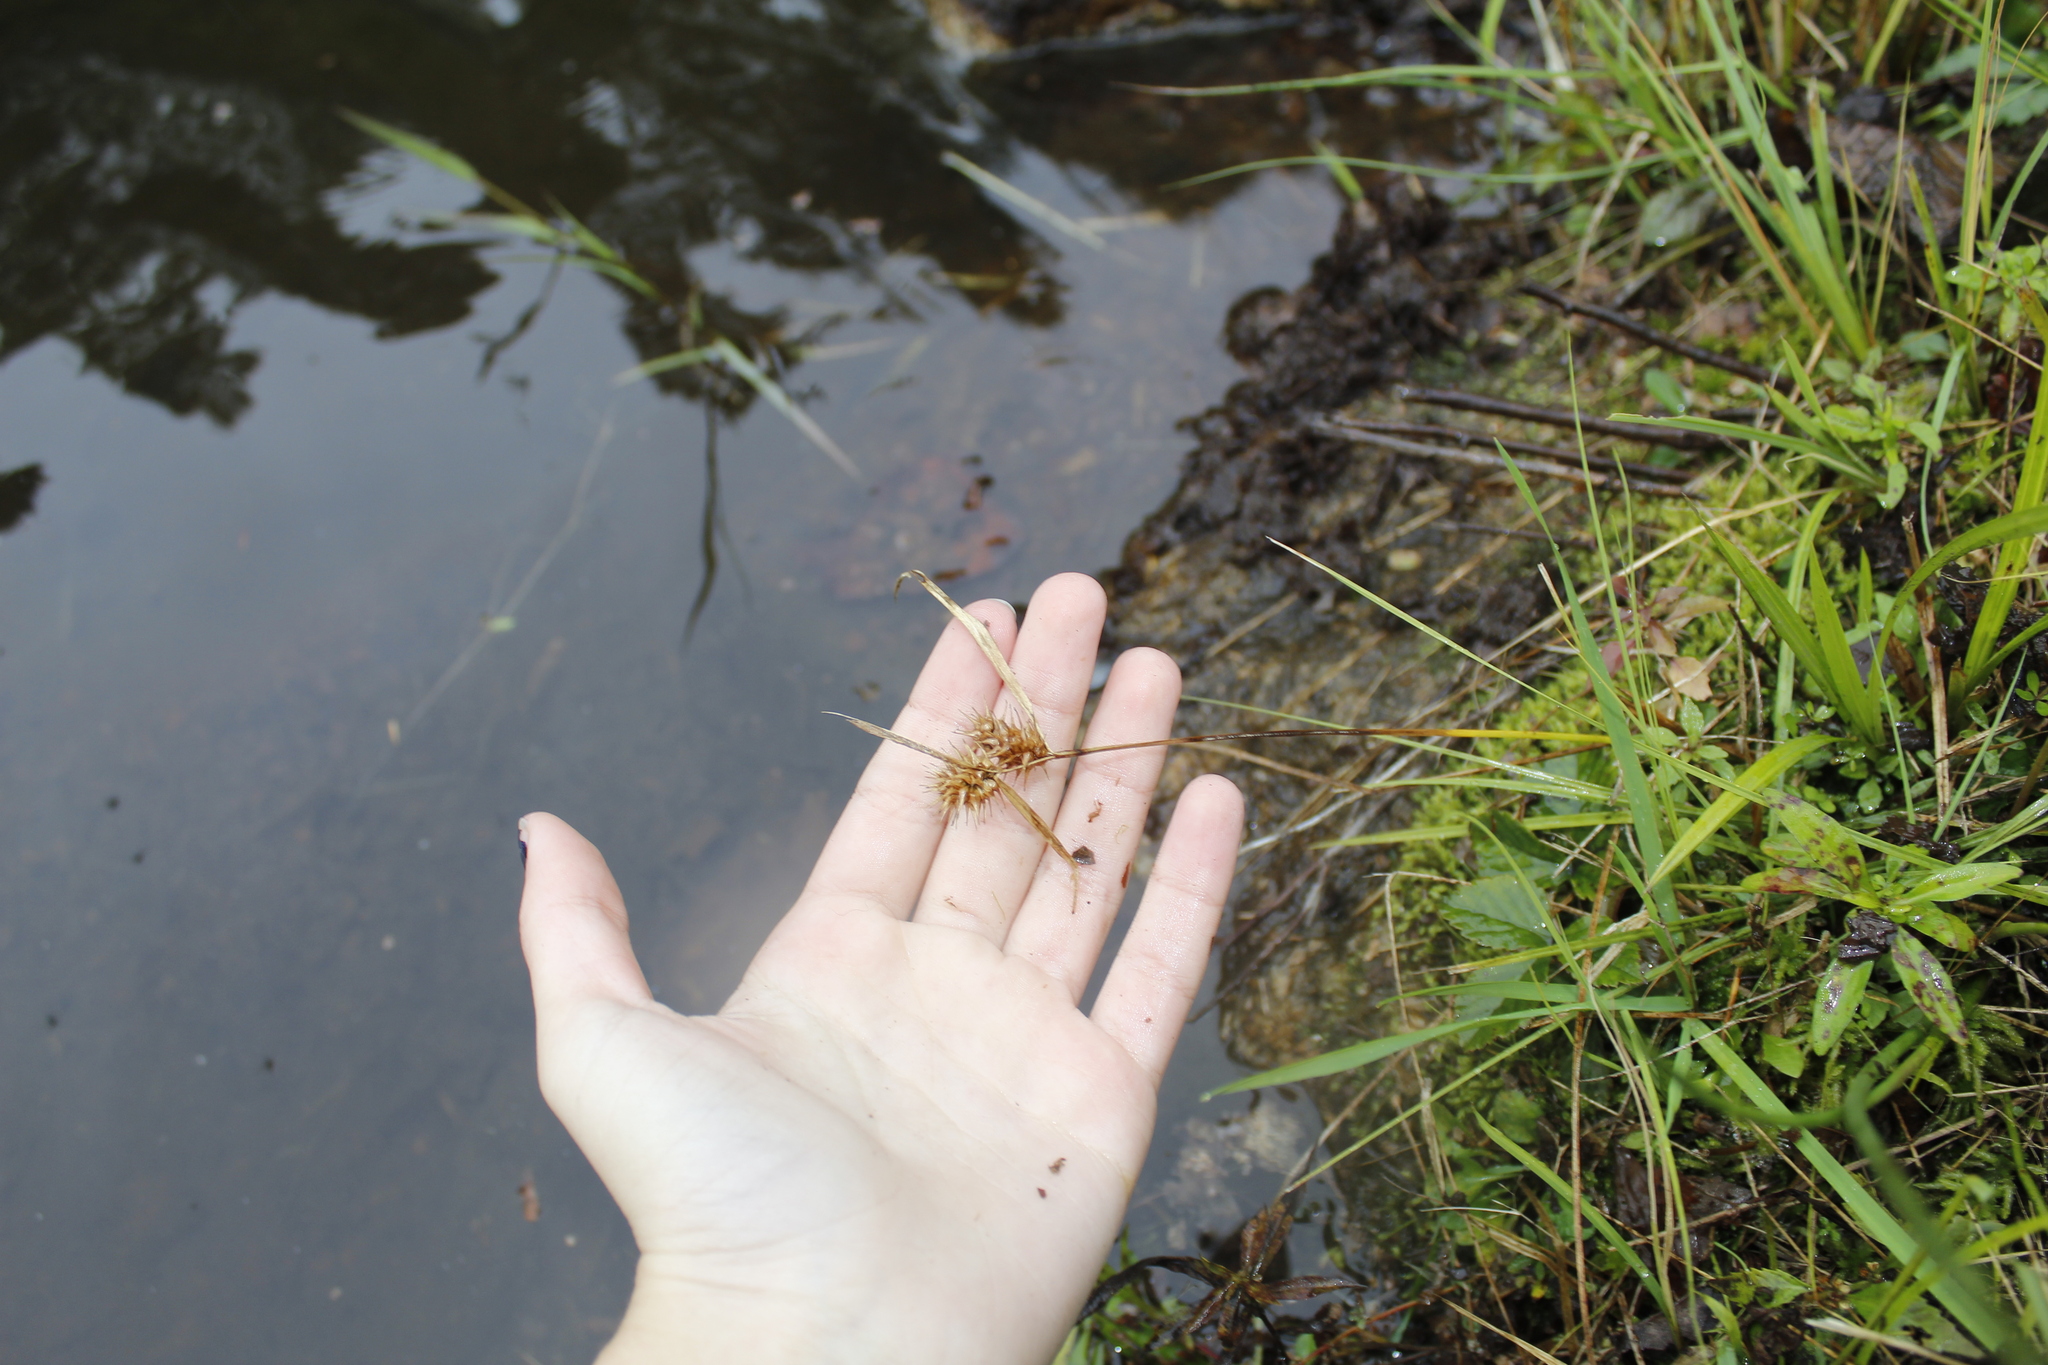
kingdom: Plantae
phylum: Tracheophyta
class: Liliopsida
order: Poales
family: Cyperaceae
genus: Carex
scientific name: Carex lurida
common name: Sallow sedge
